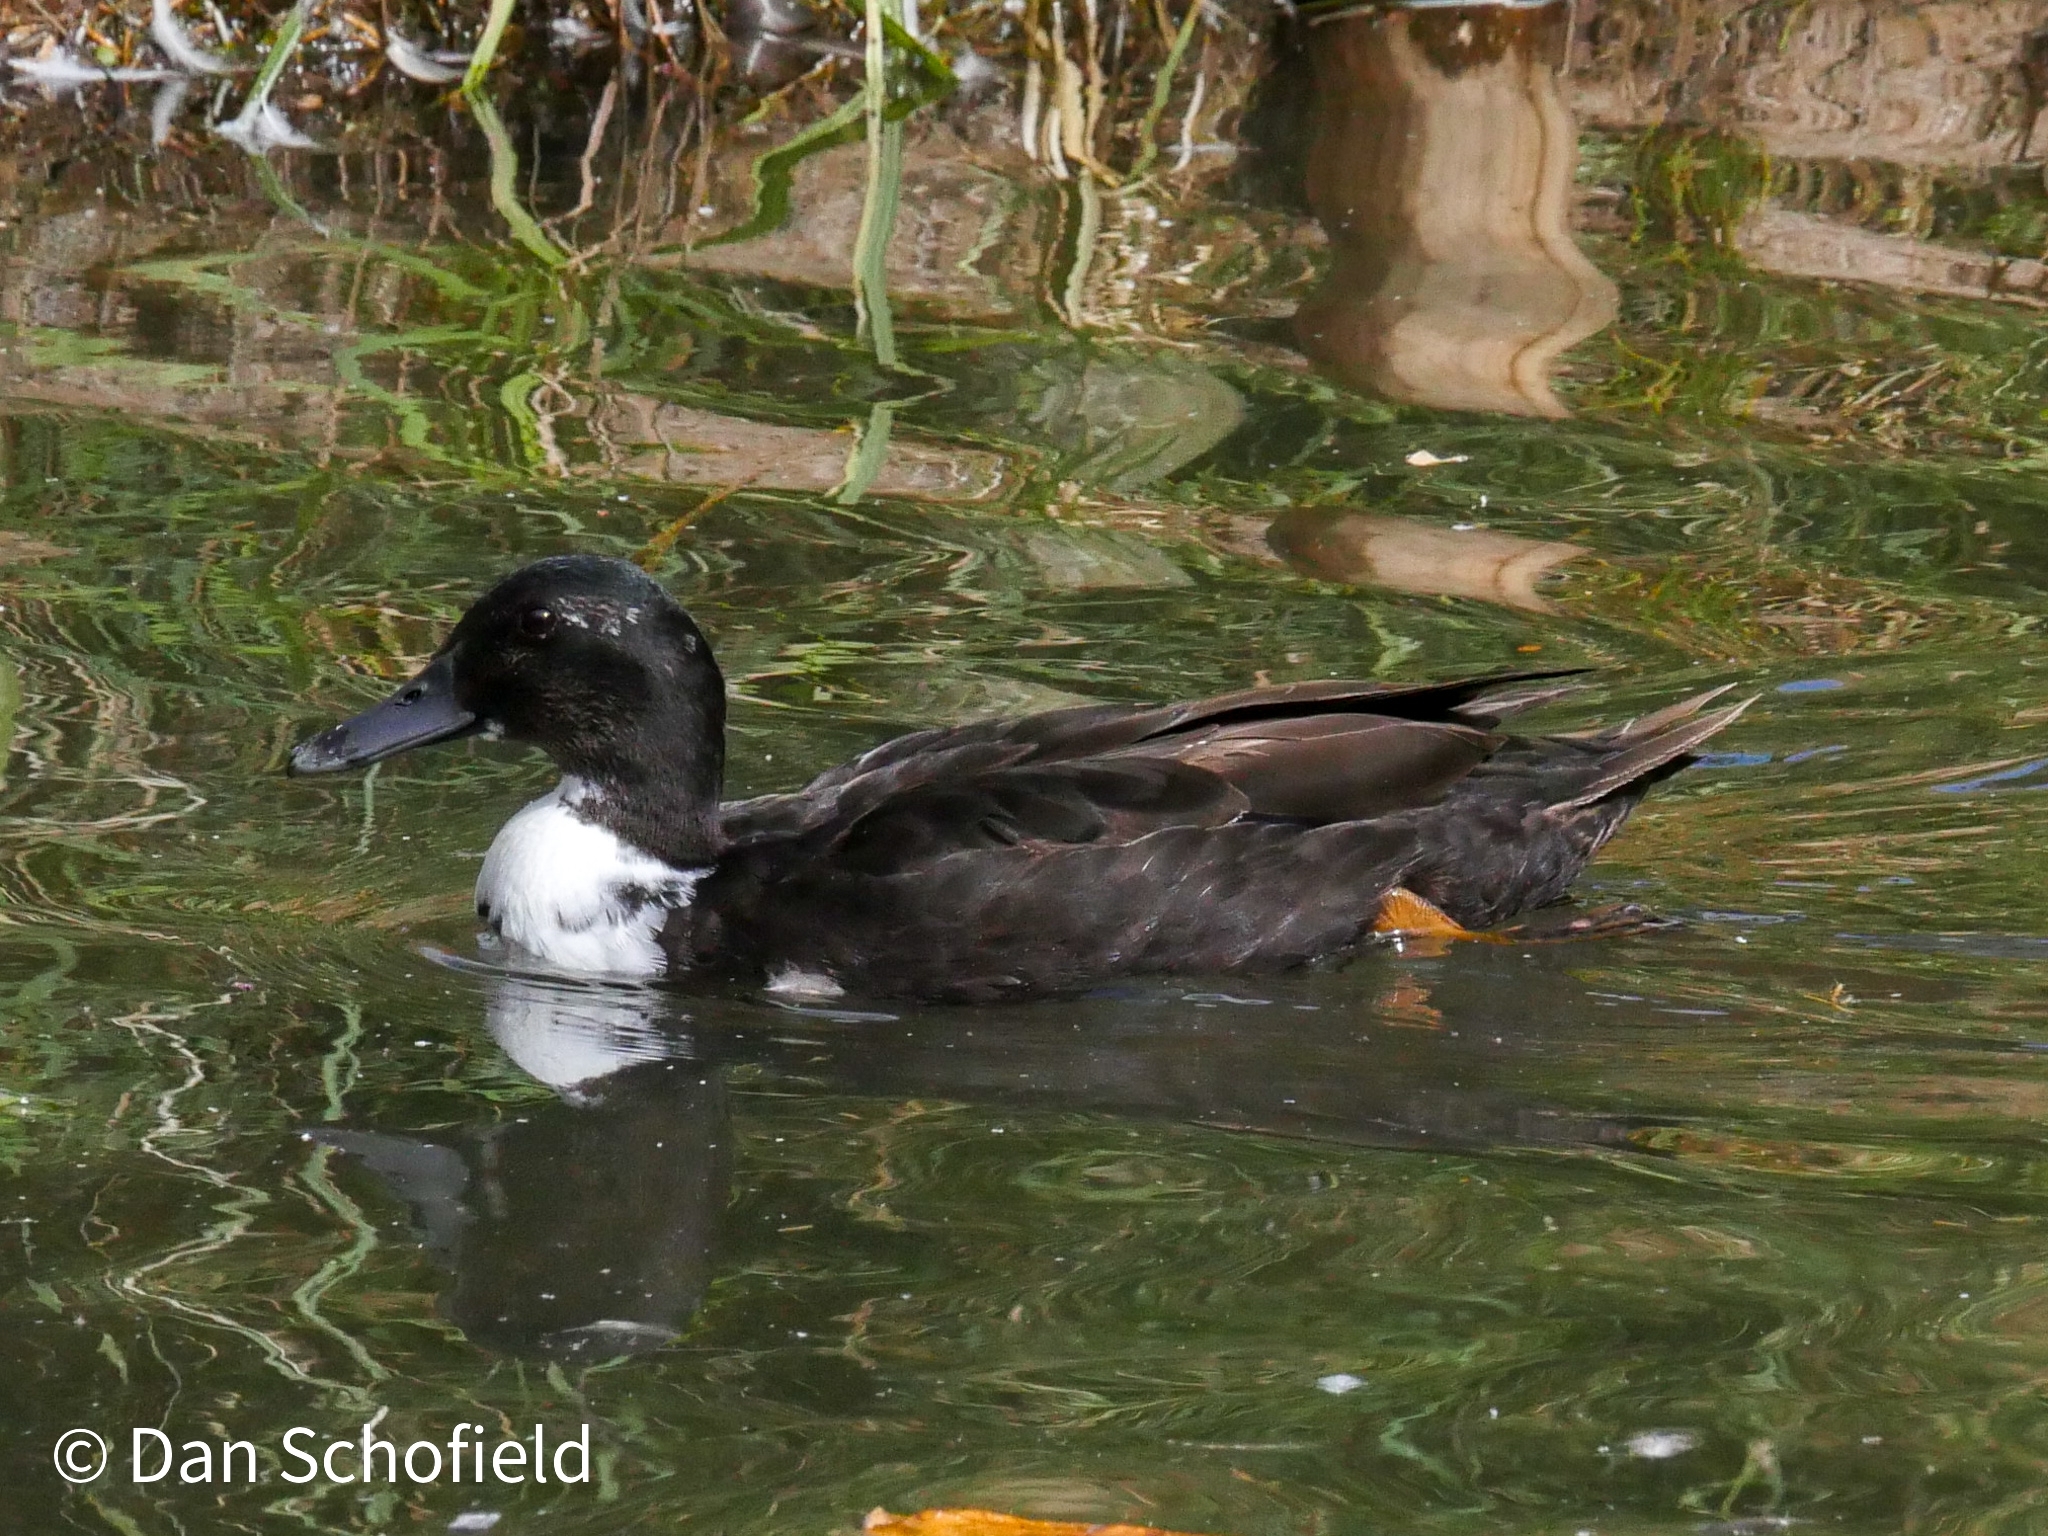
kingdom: Animalia
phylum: Chordata
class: Aves
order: Anseriformes
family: Anatidae
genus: Anas
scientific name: Anas platyrhynchos
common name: Mallard
